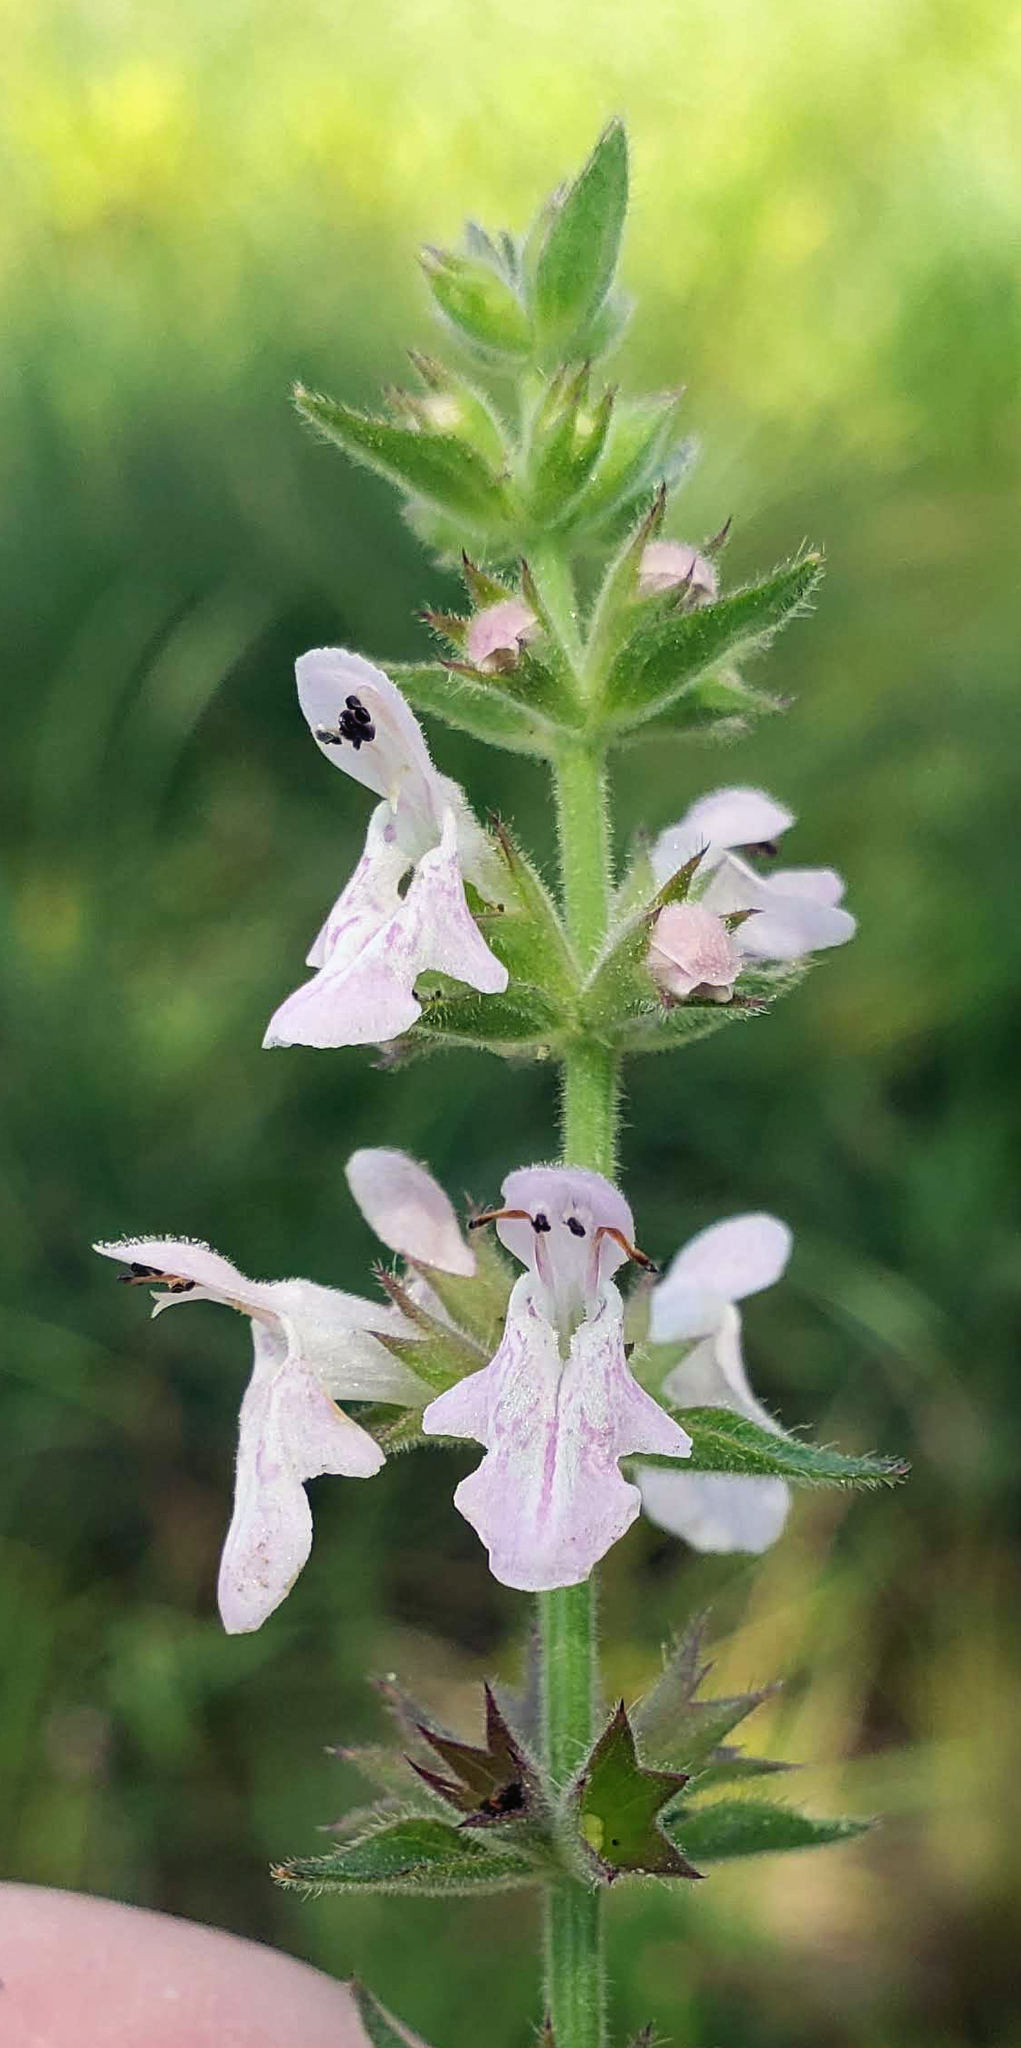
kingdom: Plantae
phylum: Tracheophyta
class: Magnoliopsida
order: Lamiales
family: Lamiaceae
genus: Stachys
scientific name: Stachys pilosa
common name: Hairy hedge-nettle
